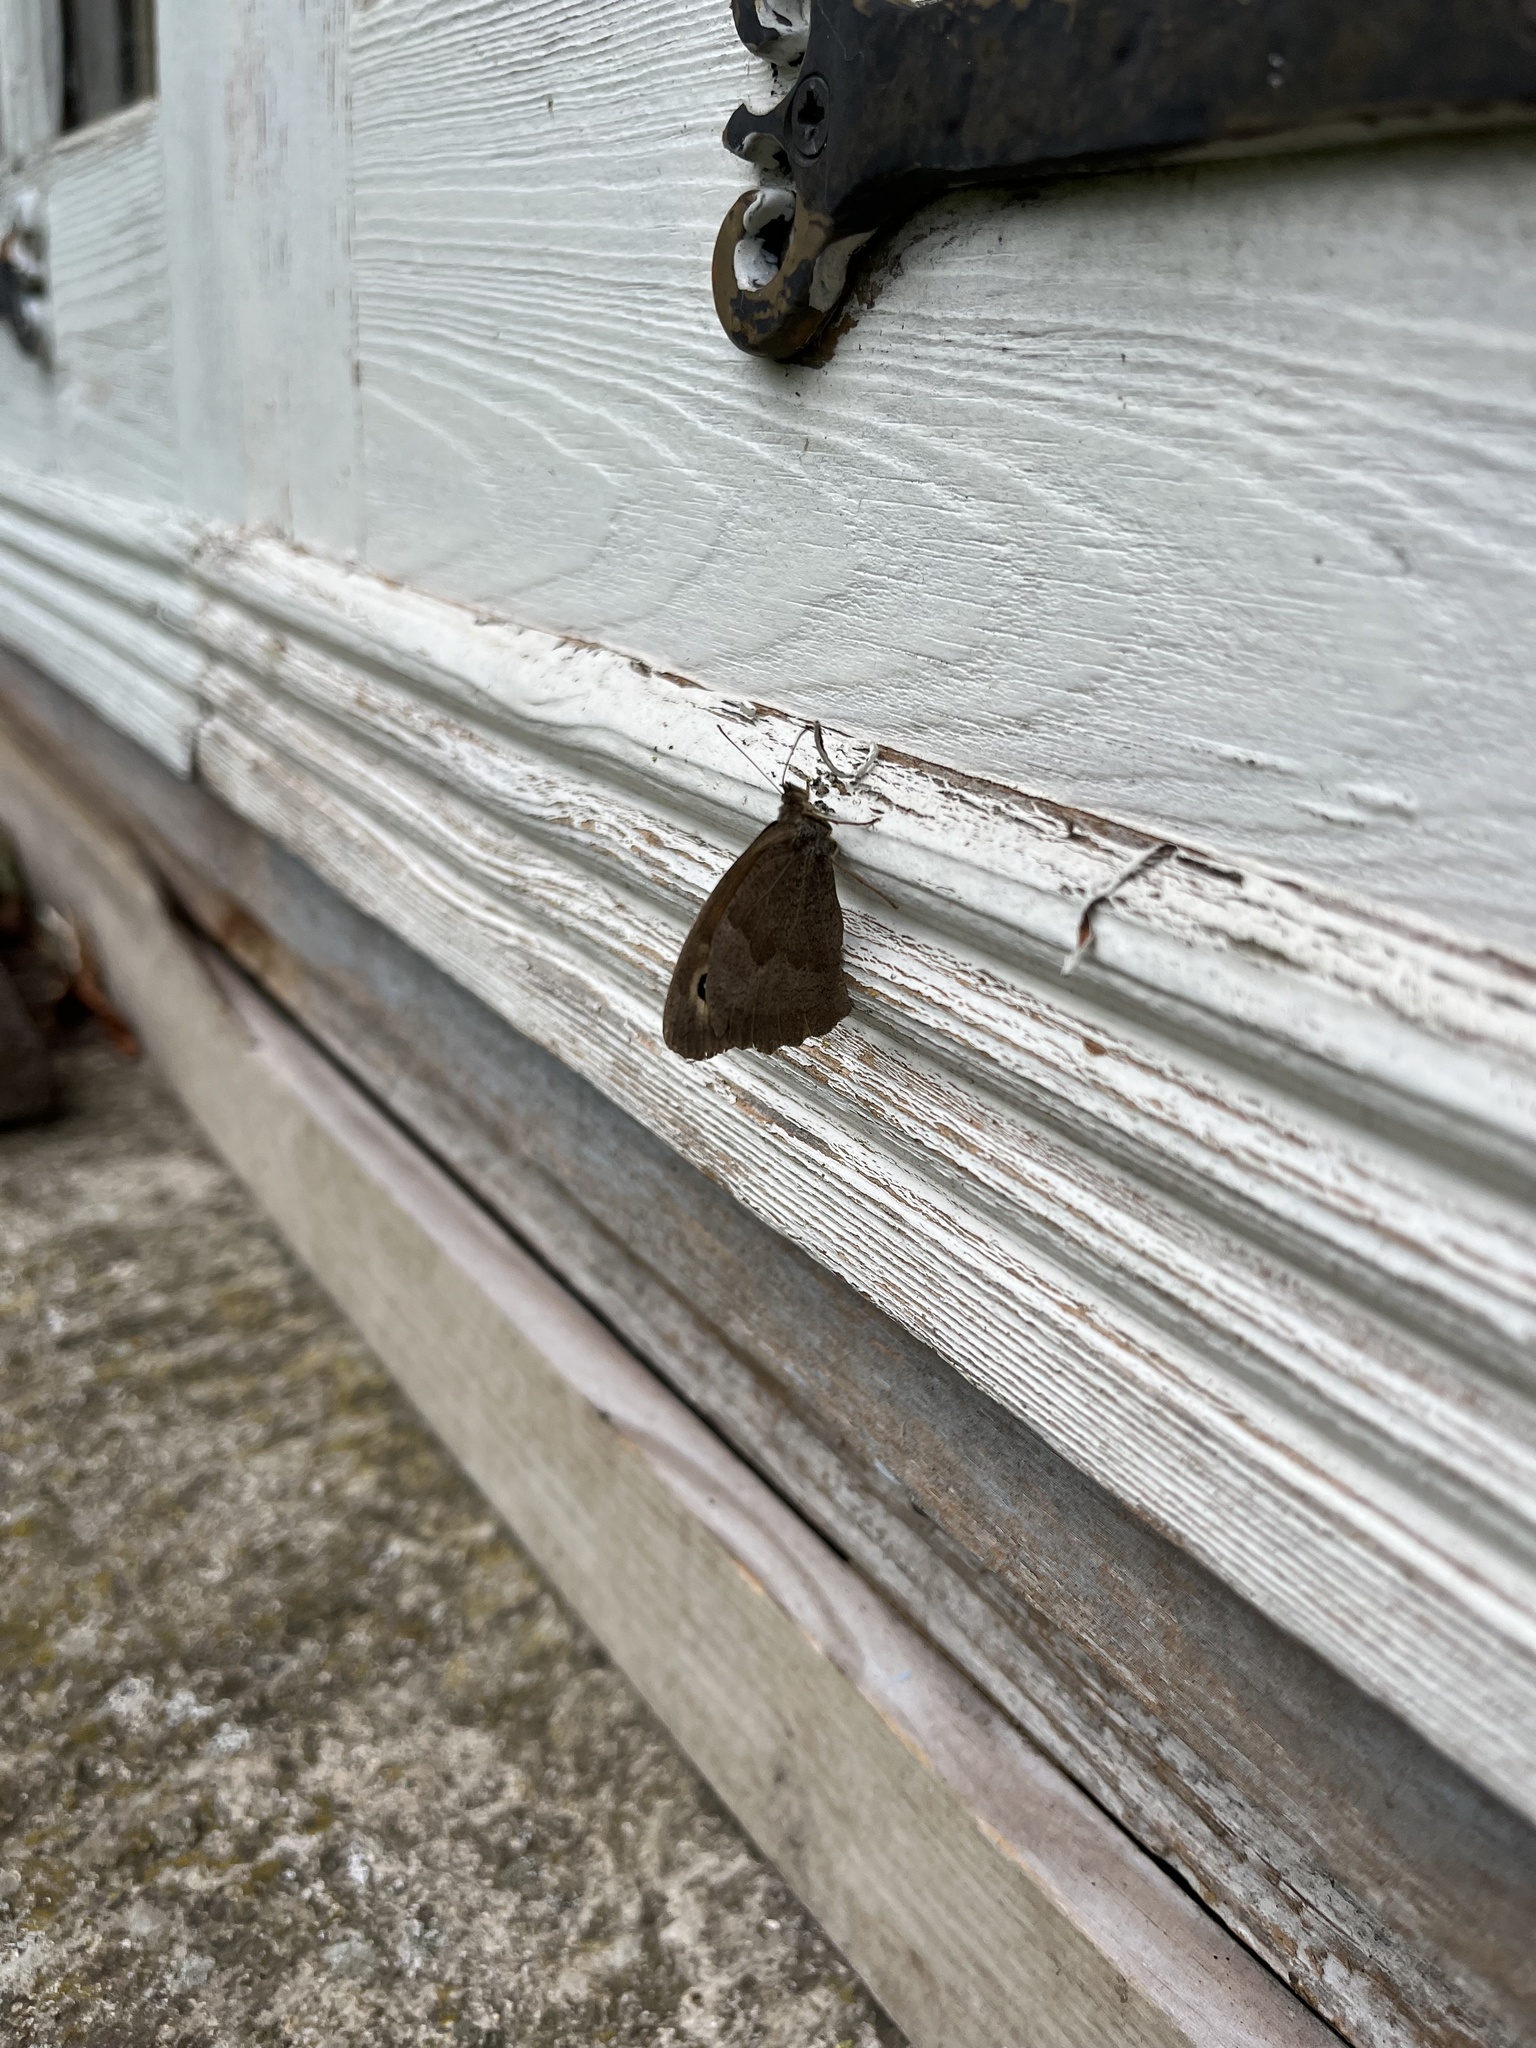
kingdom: Animalia
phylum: Arthropoda
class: Insecta
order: Lepidoptera
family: Nymphalidae
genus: Maniola
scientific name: Maniola jurtina
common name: Meadow brown
